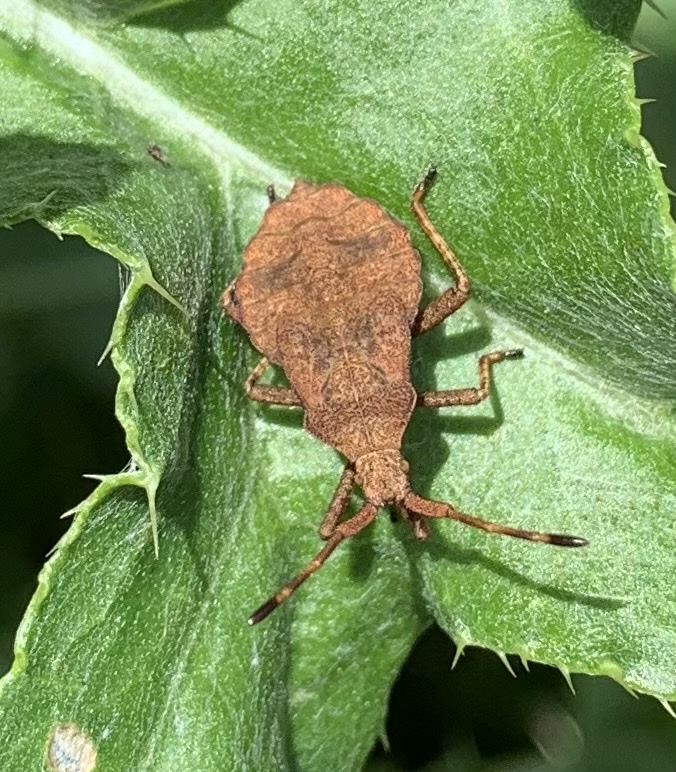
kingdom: Animalia
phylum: Arthropoda
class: Insecta
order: Hemiptera
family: Coreidae
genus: Coreus
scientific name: Coreus marginatus
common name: Dock bug
